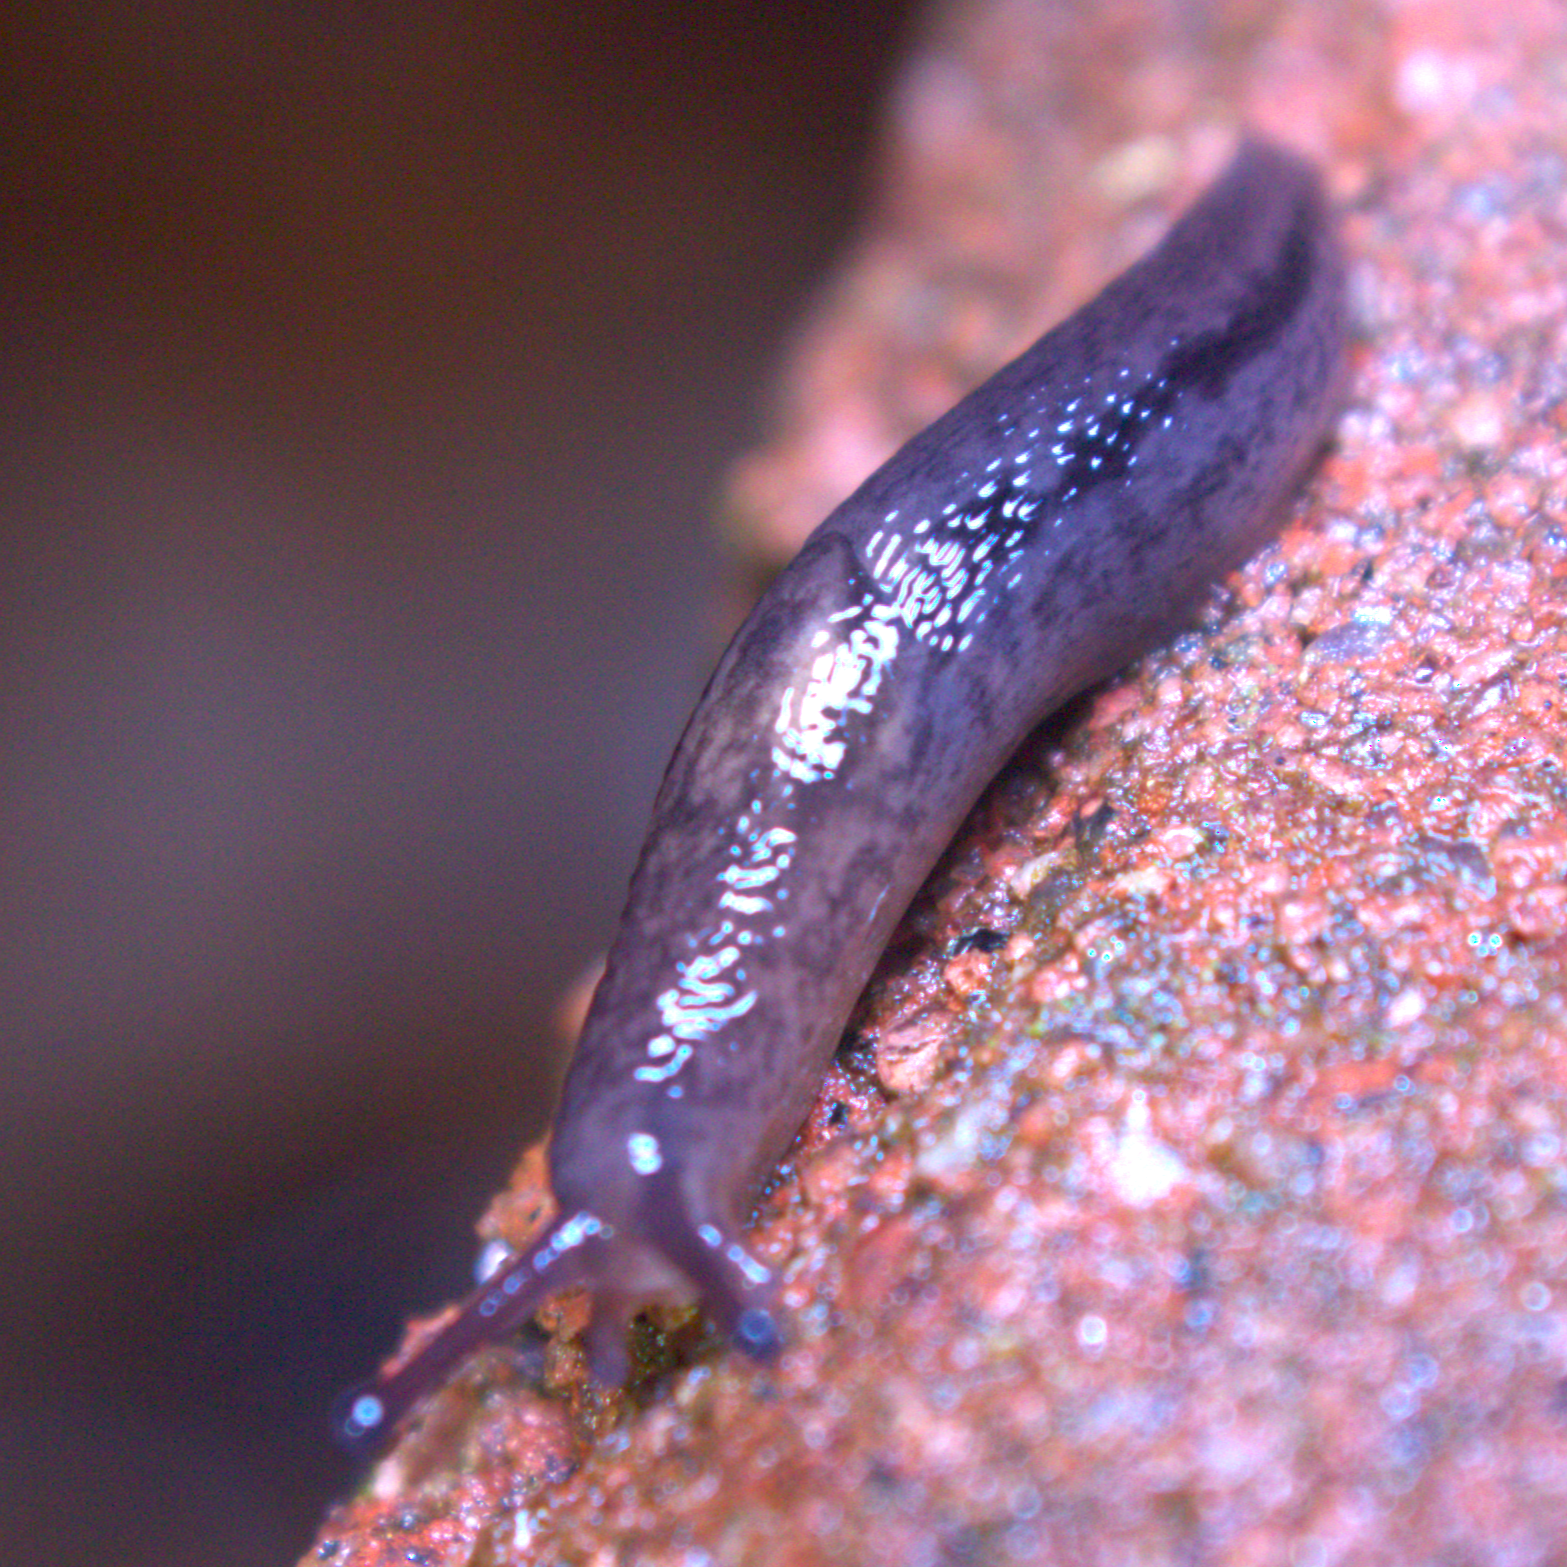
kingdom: Animalia
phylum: Mollusca
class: Gastropoda
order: Stylommatophora
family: Limacidae
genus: Limax
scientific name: Limax maximus
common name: Great grey slug
